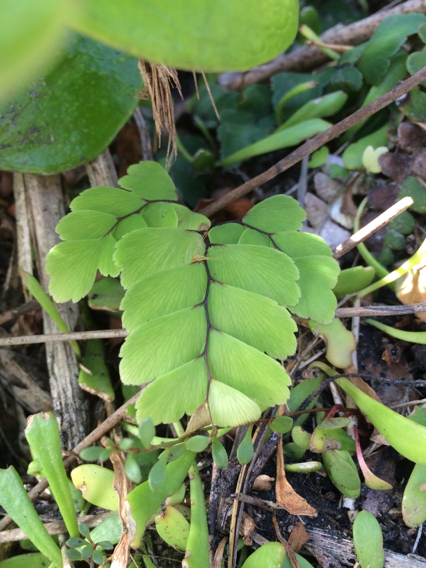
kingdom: Plantae
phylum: Tracheophyta
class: Polypodiopsida
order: Polypodiales
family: Pteridaceae
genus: Adiantum
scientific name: Adiantum cunninghamii
